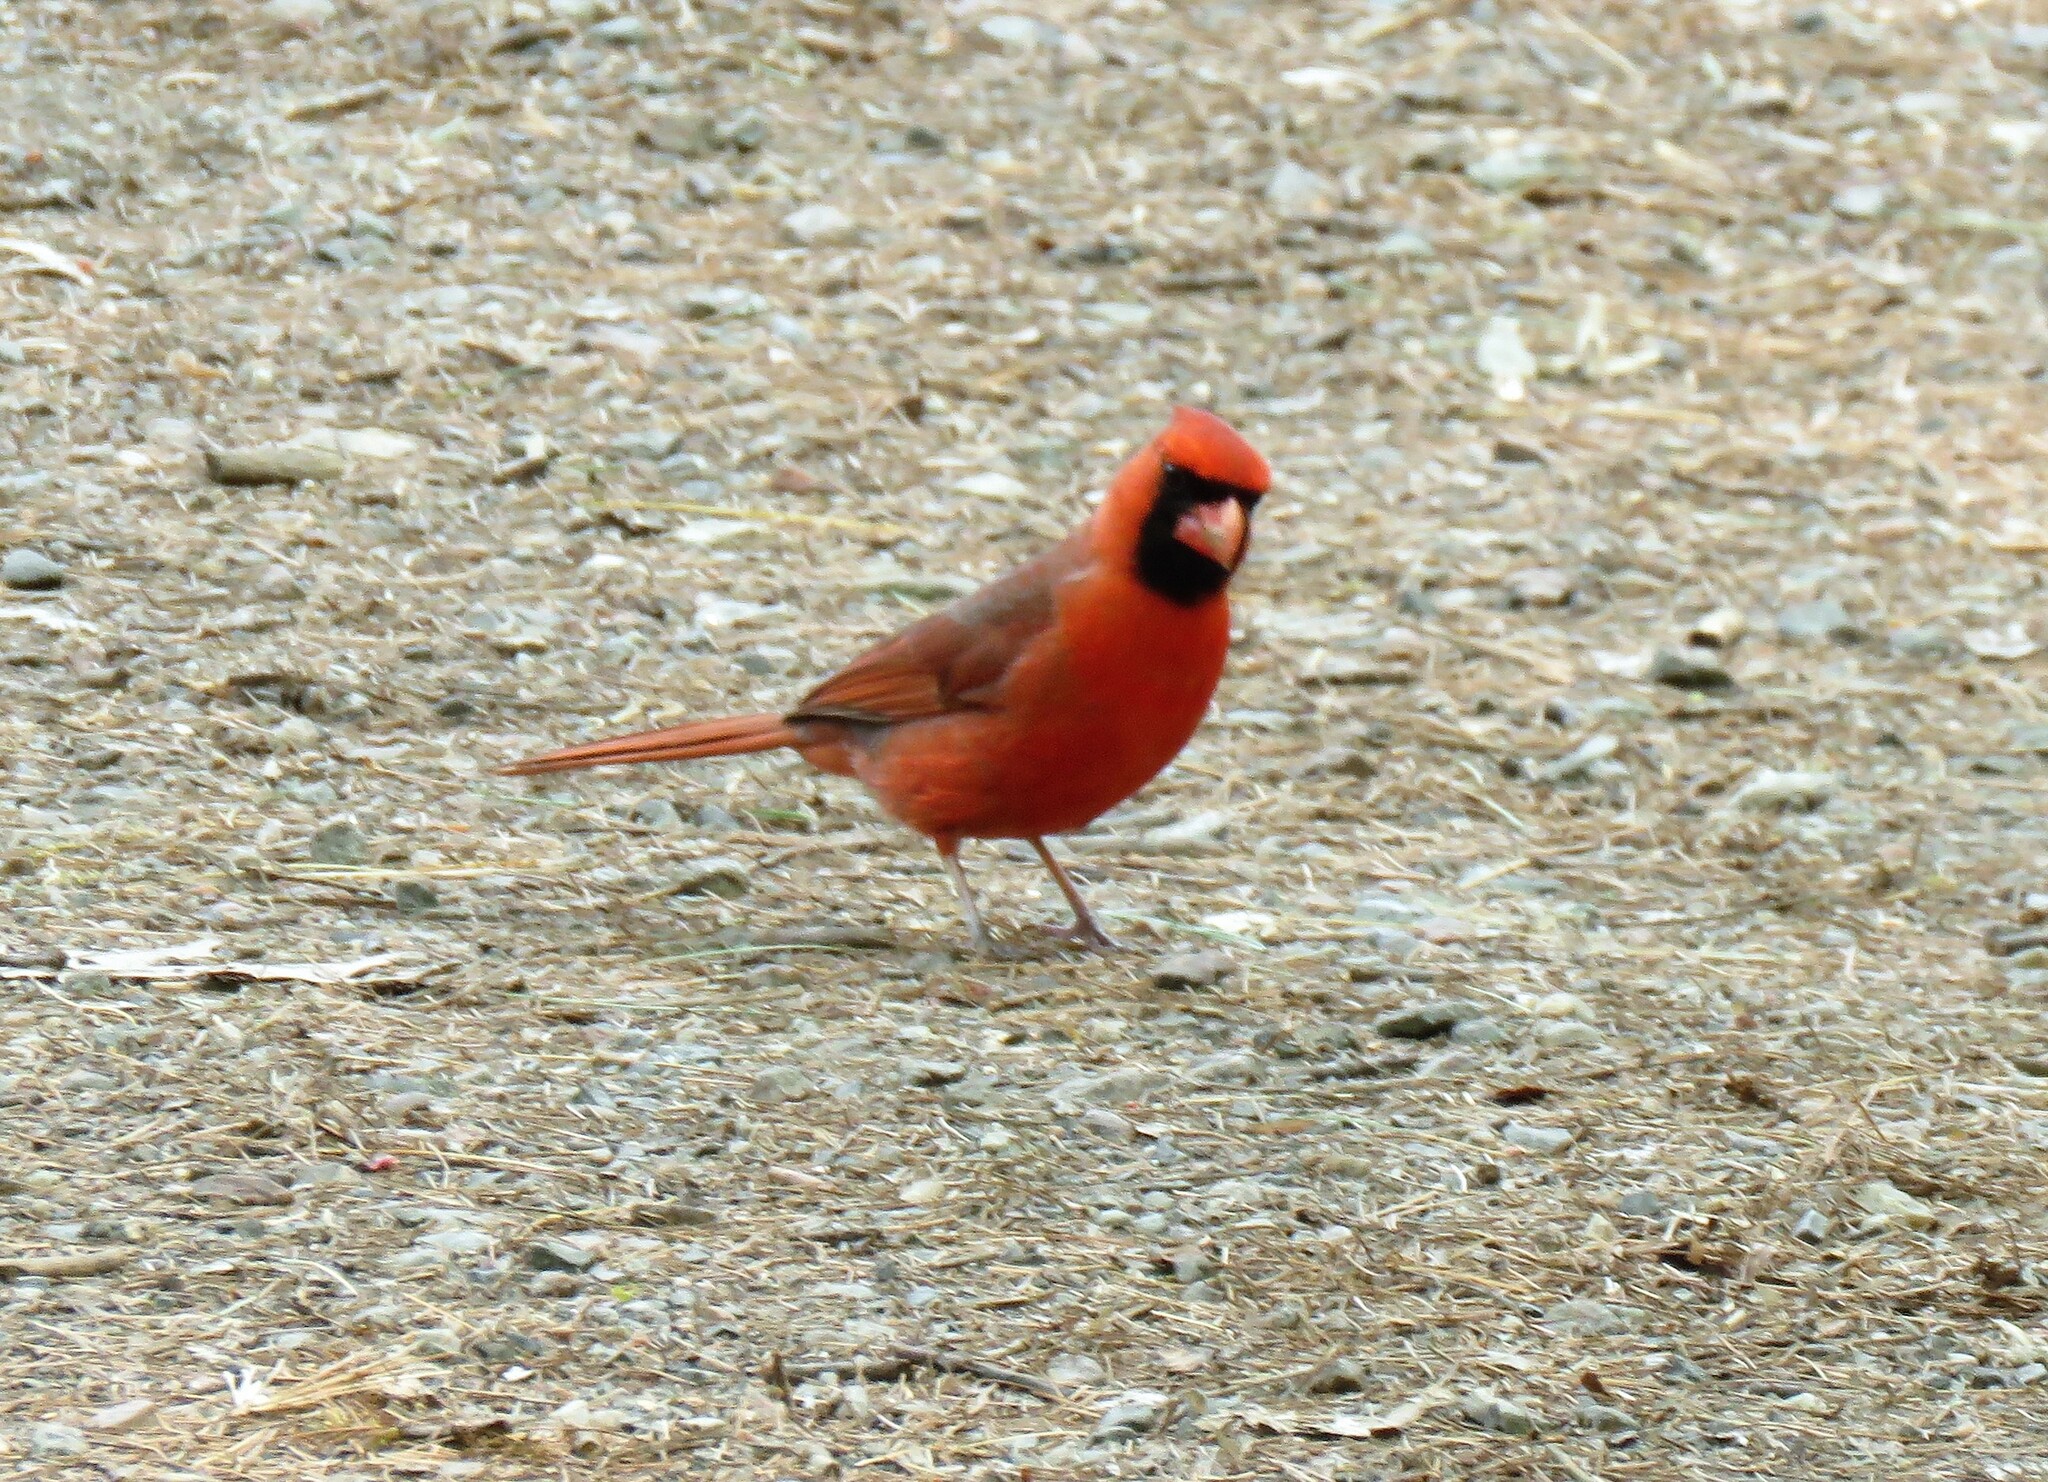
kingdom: Animalia
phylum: Chordata
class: Aves
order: Passeriformes
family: Cardinalidae
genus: Cardinalis
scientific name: Cardinalis cardinalis
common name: Northern cardinal
